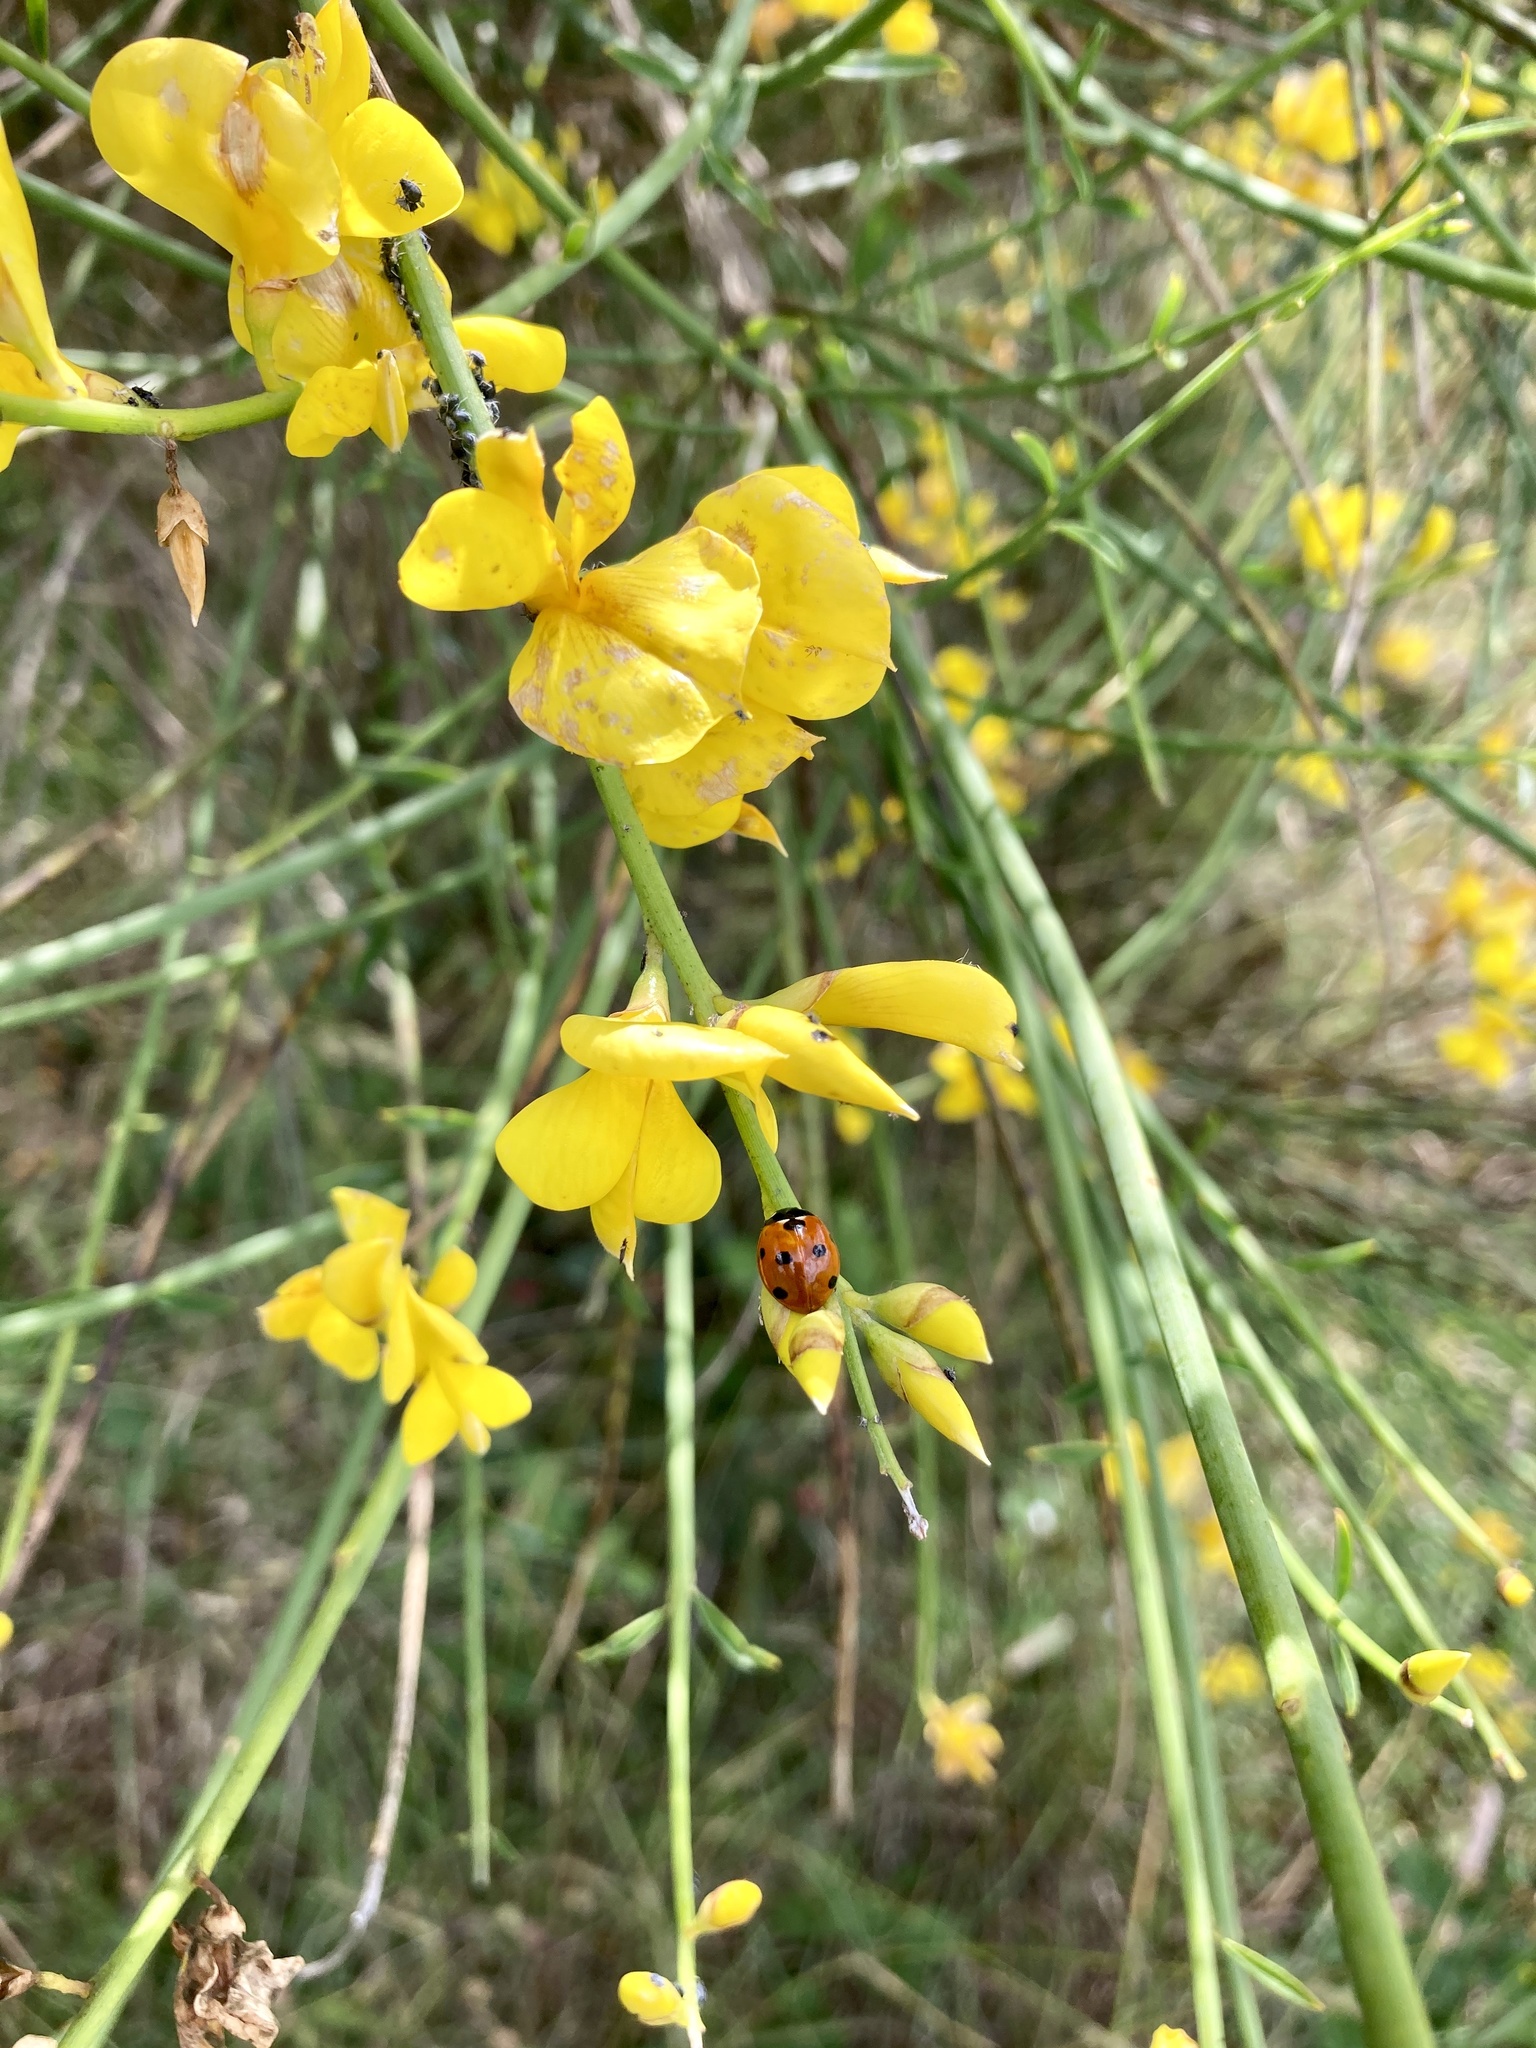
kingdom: Animalia
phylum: Arthropoda
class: Insecta
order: Coleoptera
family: Coccinellidae
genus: Coccinella
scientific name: Coccinella septempunctata
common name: Sevenspotted lady beetle
